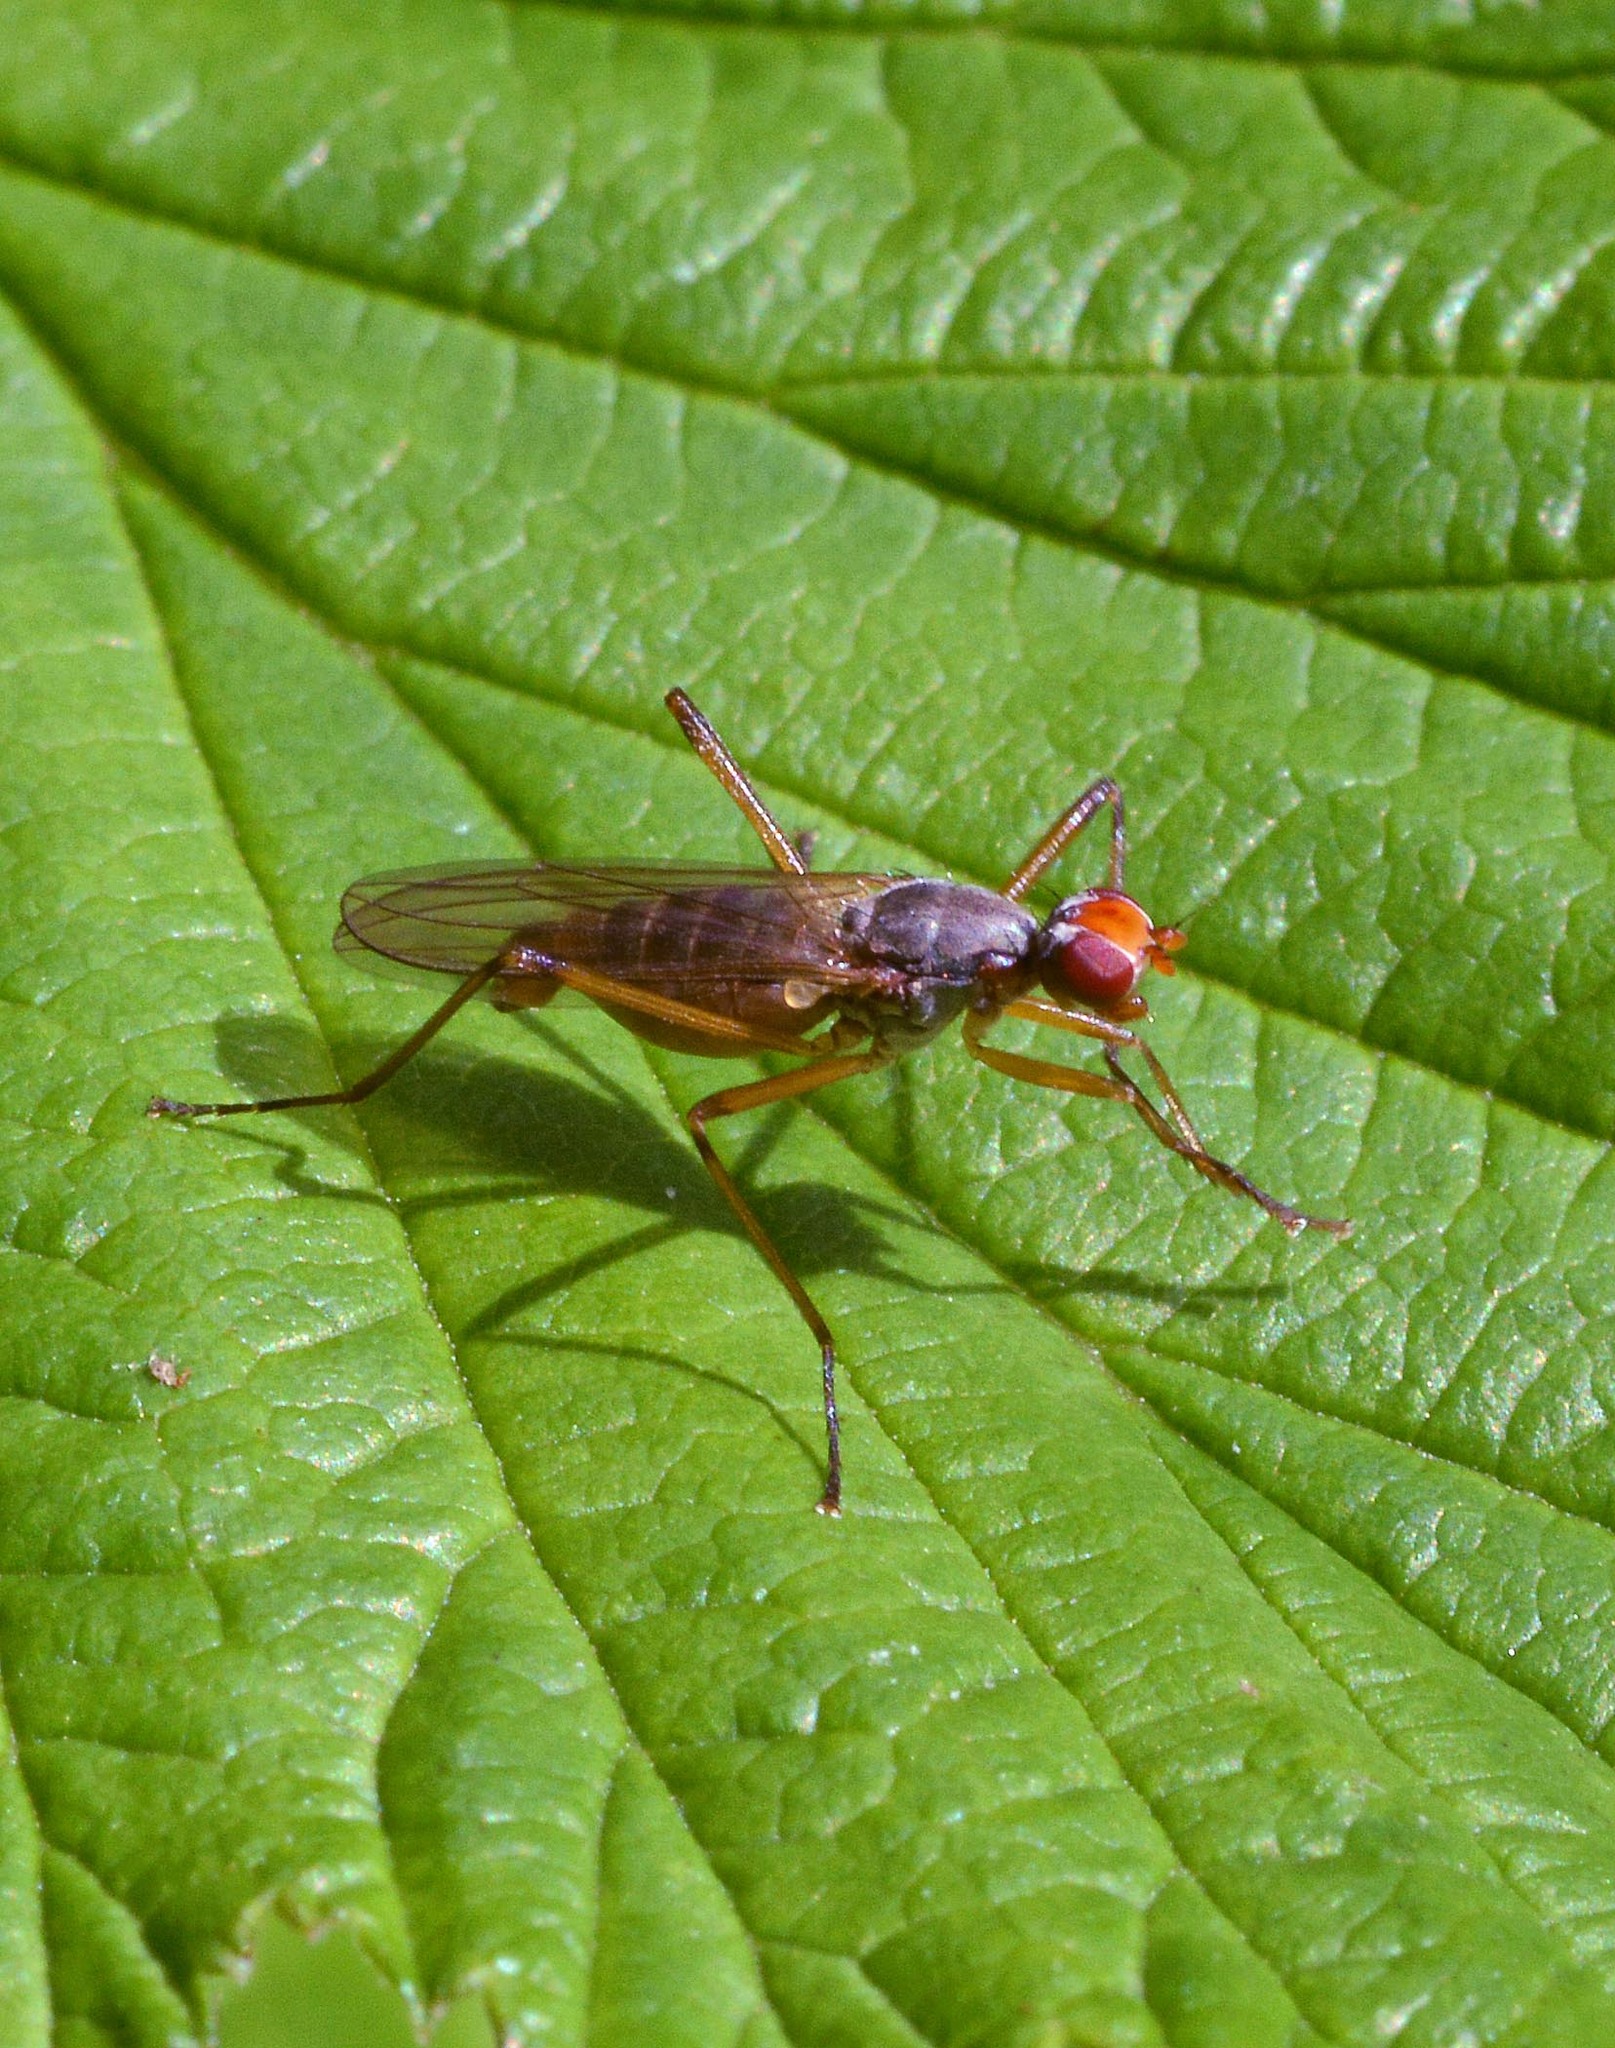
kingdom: Animalia
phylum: Arthropoda
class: Insecta
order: Diptera
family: Micropezidae
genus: Calobata
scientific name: Calobata petronella
